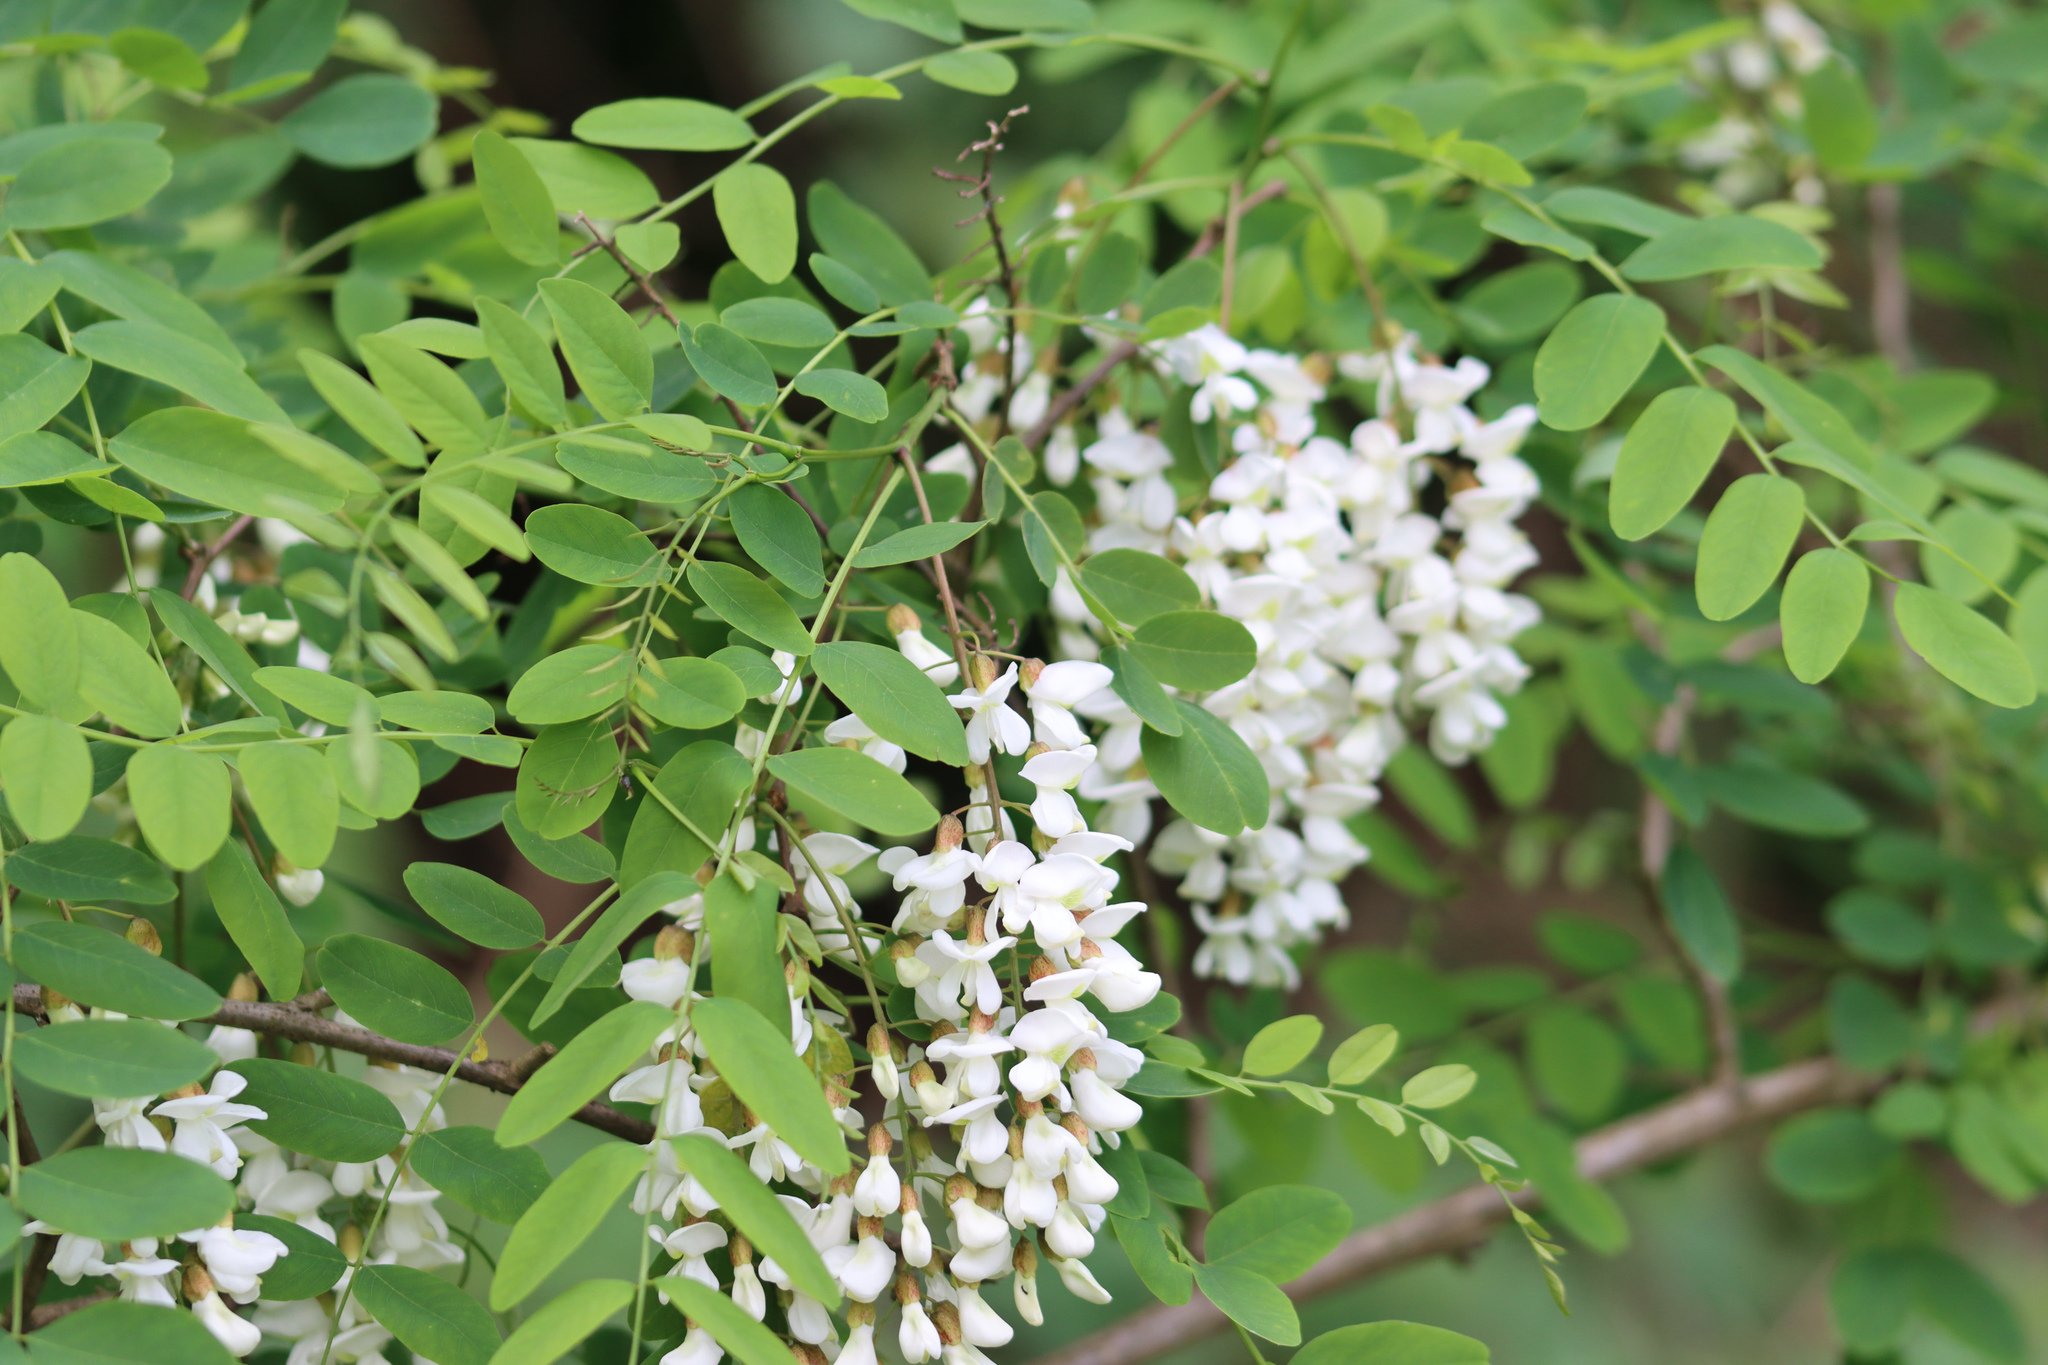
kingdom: Plantae
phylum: Tracheophyta
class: Magnoliopsida
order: Fabales
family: Fabaceae
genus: Robinia
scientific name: Robinia pseudoacacia
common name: Black locust
